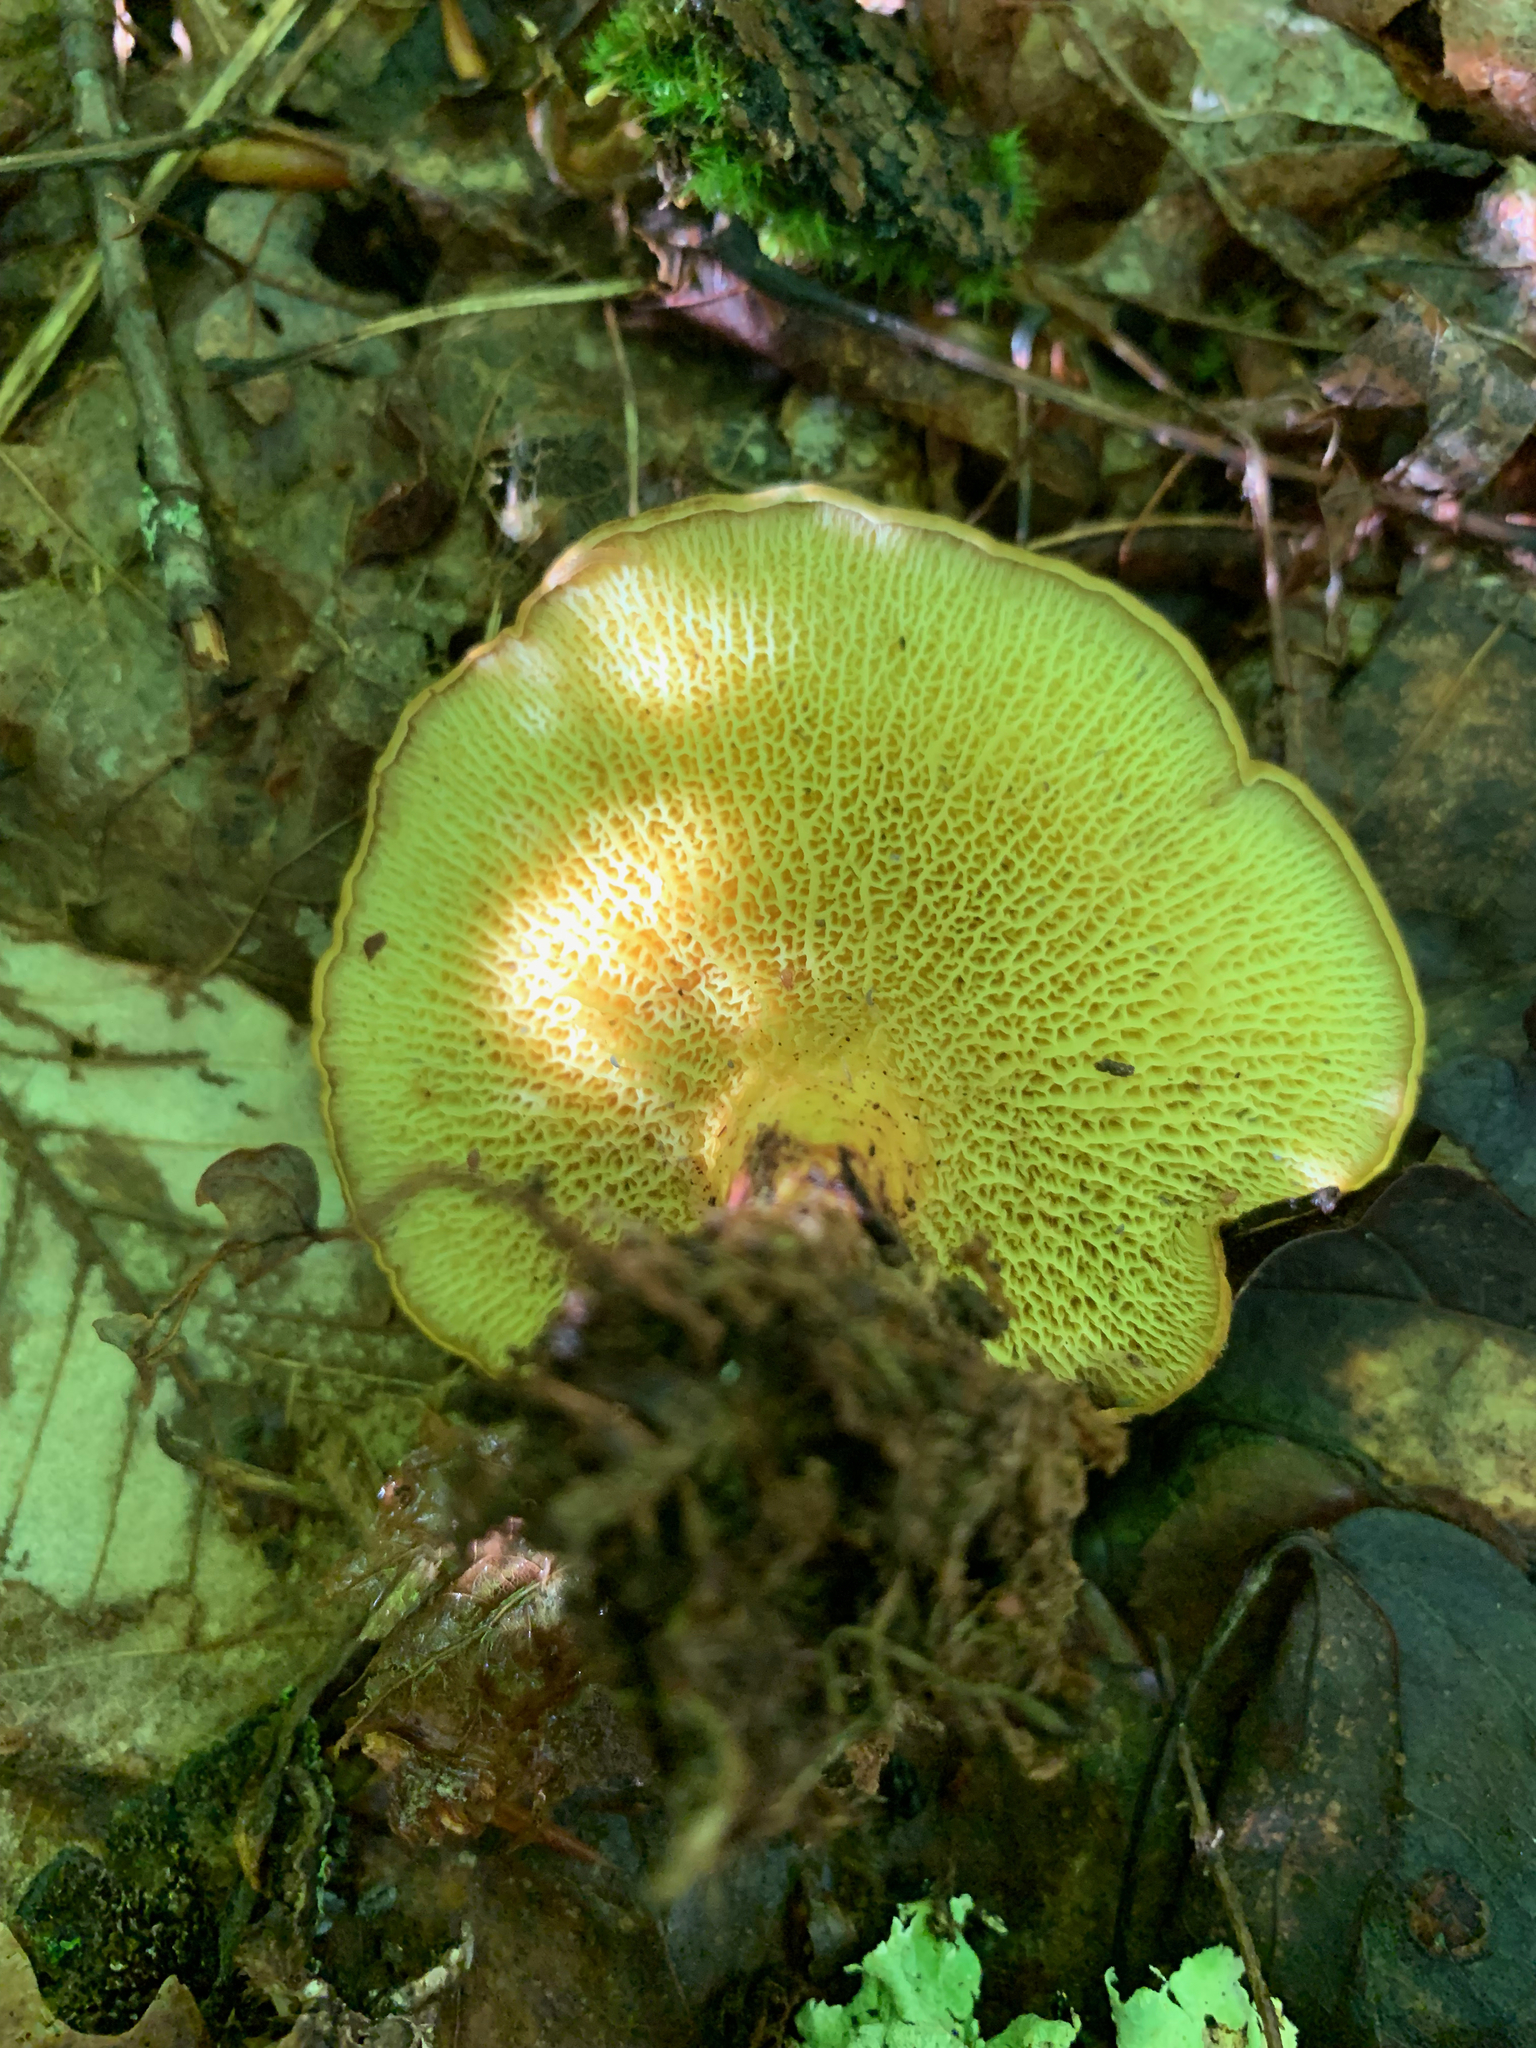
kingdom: Fungi
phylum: Basidiomycota
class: Agaricomycetes
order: Boletales
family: Boletinellaceae
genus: Boletinellus
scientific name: Boletinellus merulioides
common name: Ash tree bolete
